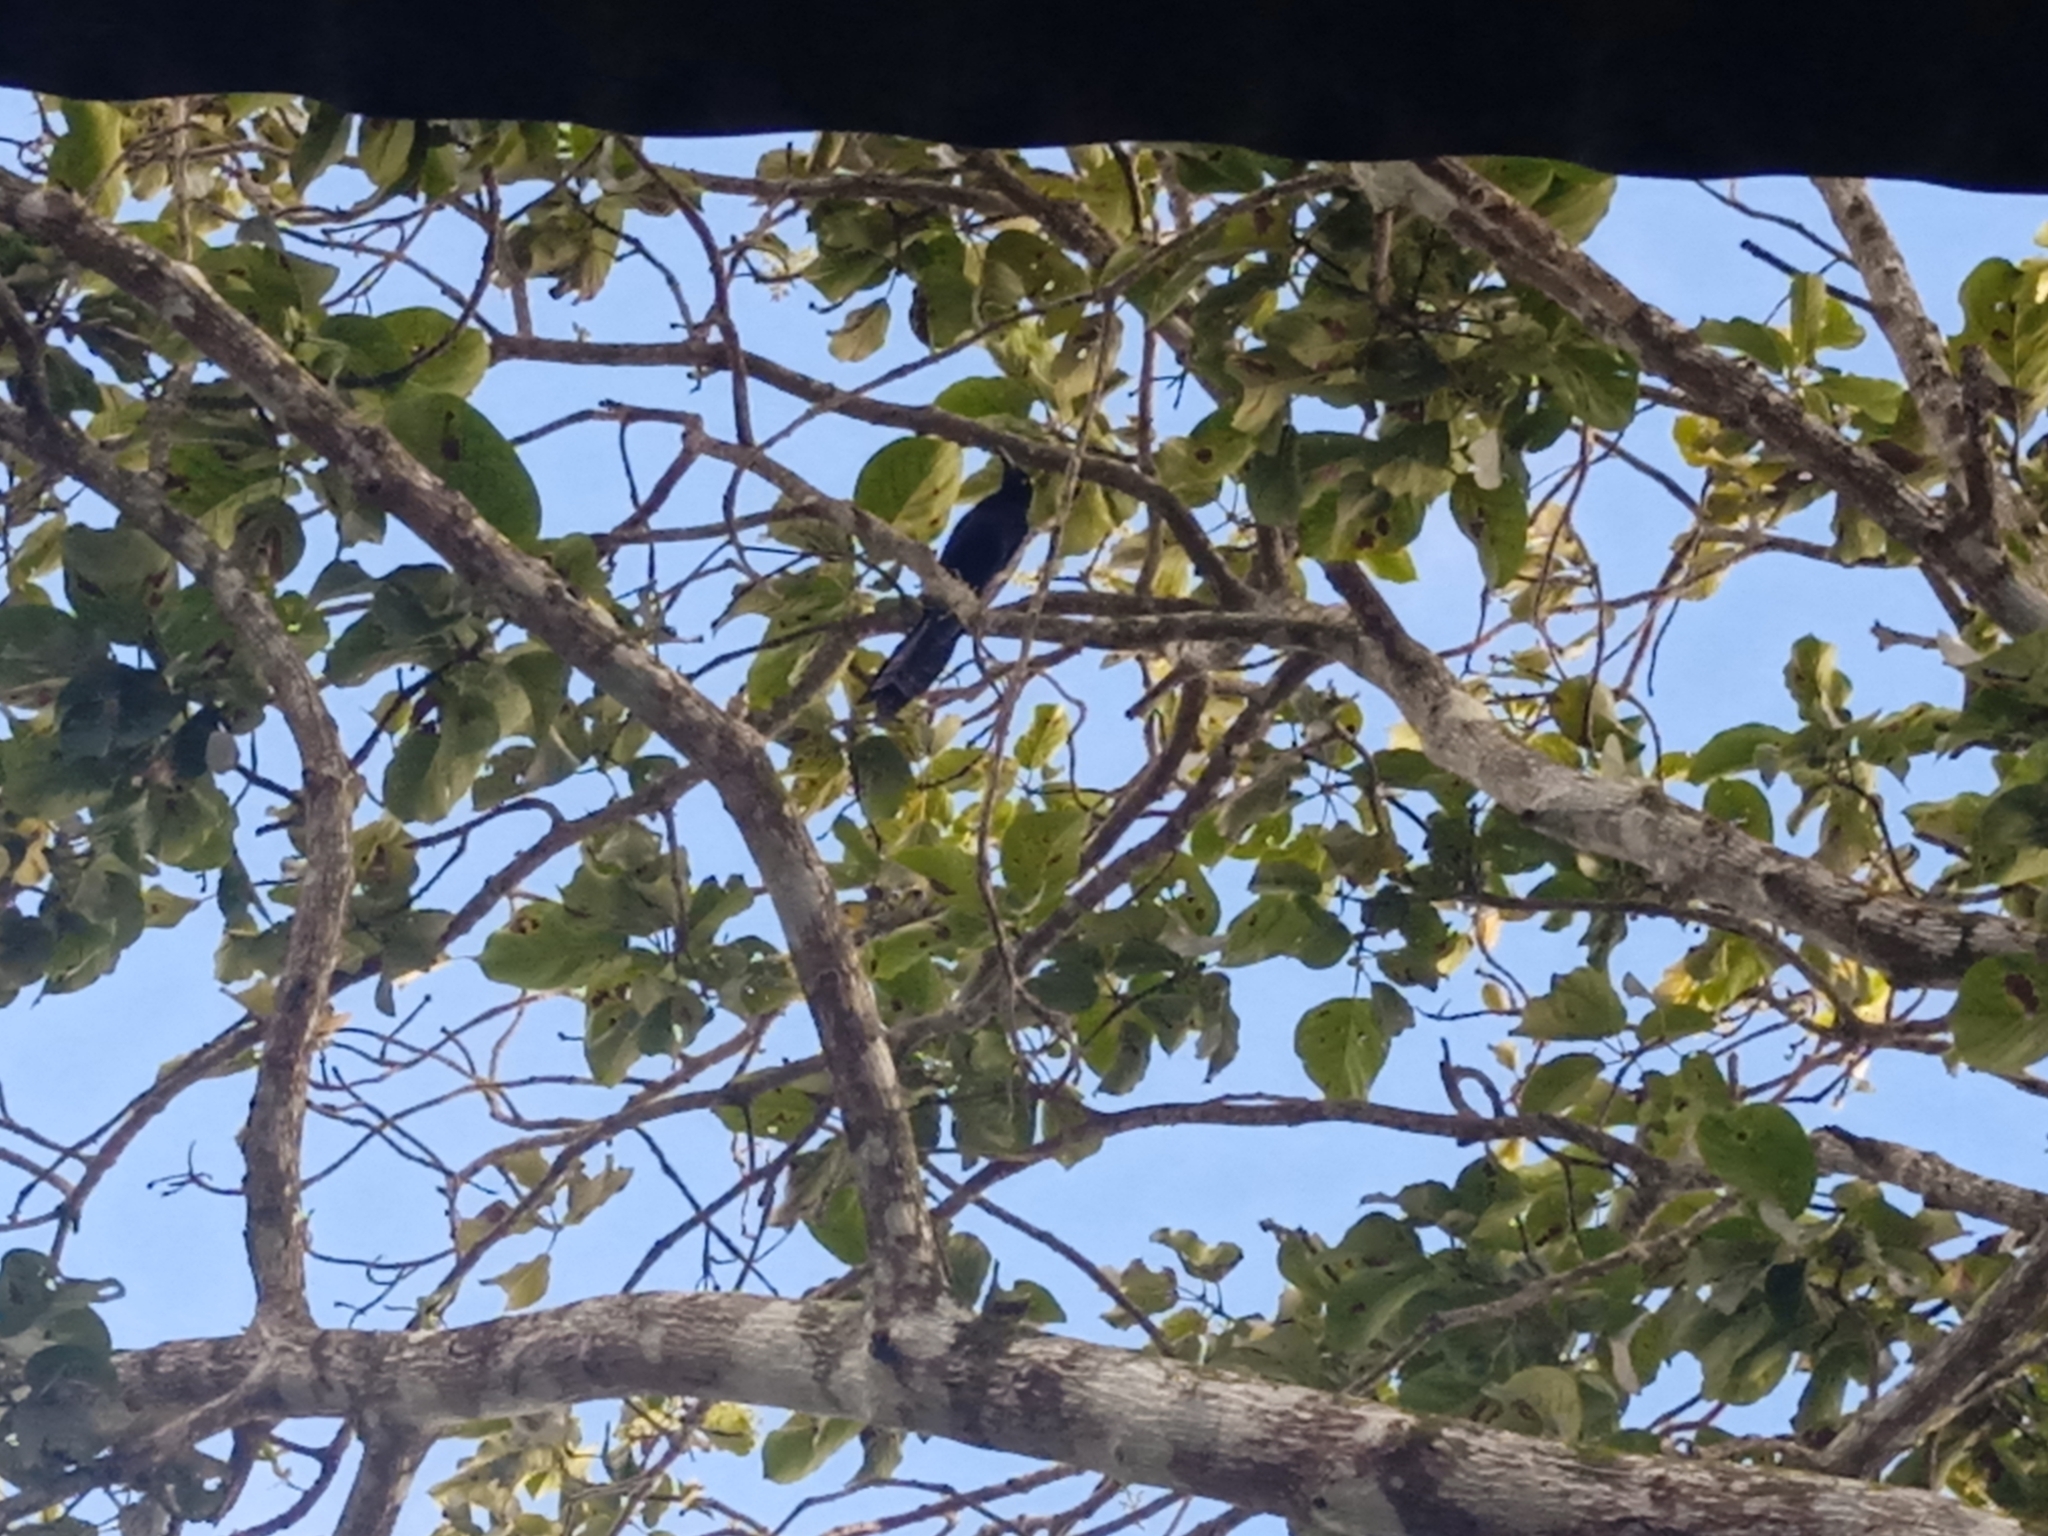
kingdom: Animalia
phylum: Chordata
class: Aves
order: Passeriformes
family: Icteridae
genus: Quiscalus
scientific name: Quiscalus mexicanus
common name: Great-tailed grackle
